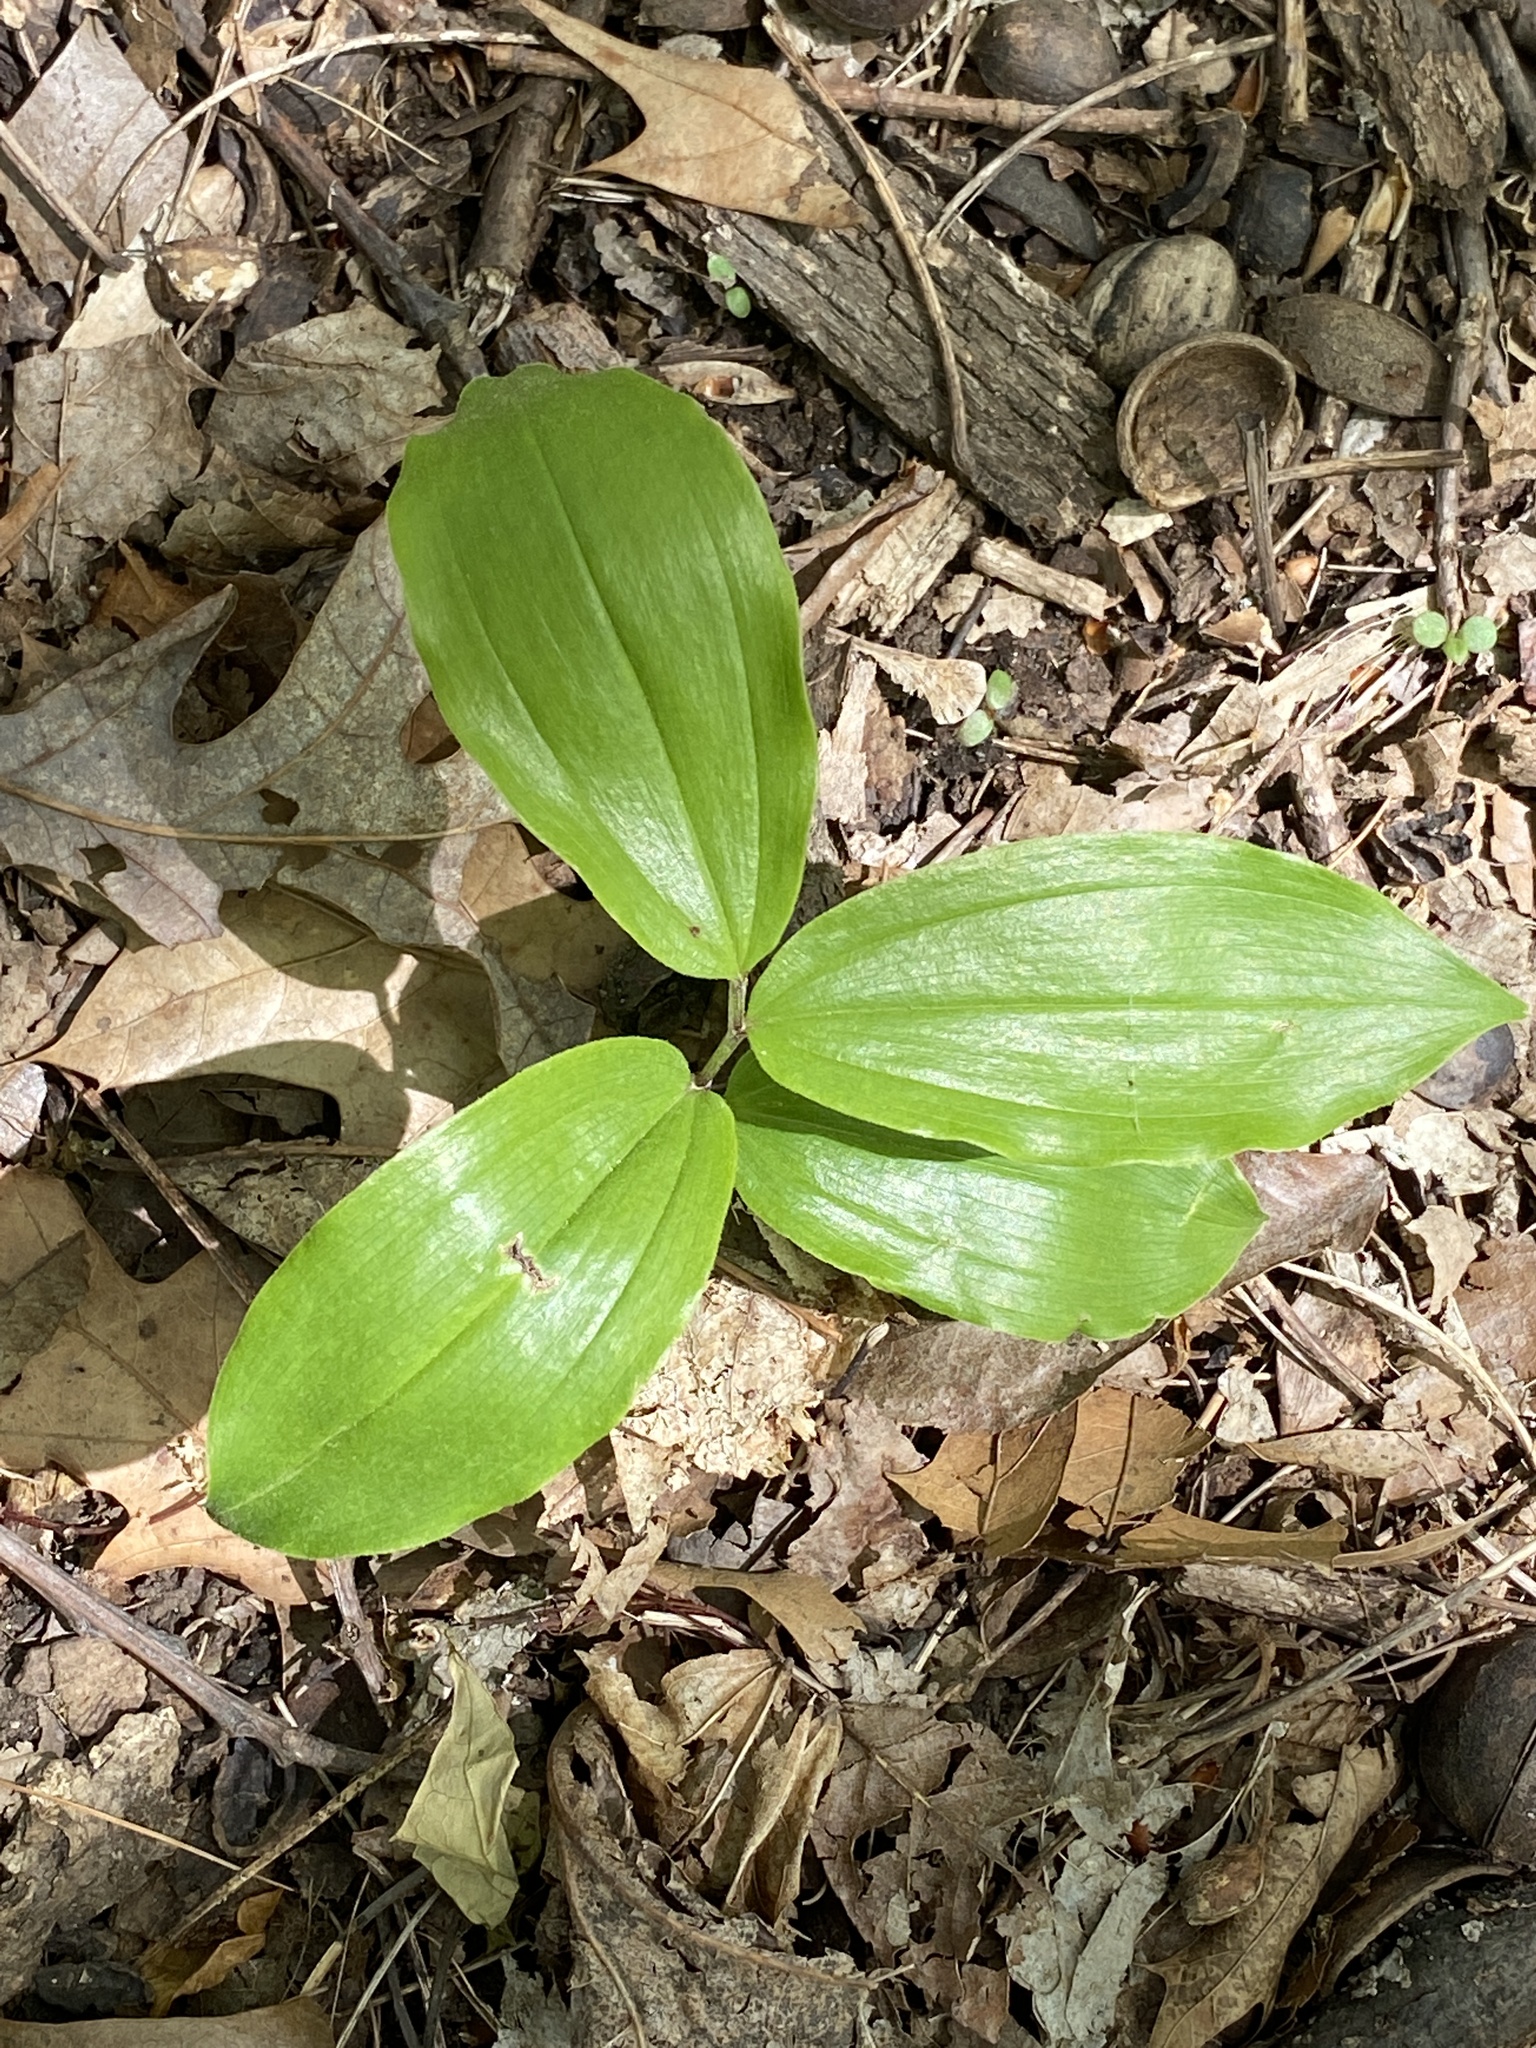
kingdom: Plantae
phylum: Tracheophyta
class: Liliopsida
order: Asparagales
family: Asparagaceae
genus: Maianthemum
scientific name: Maianthemum racemosum
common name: False spikenard
